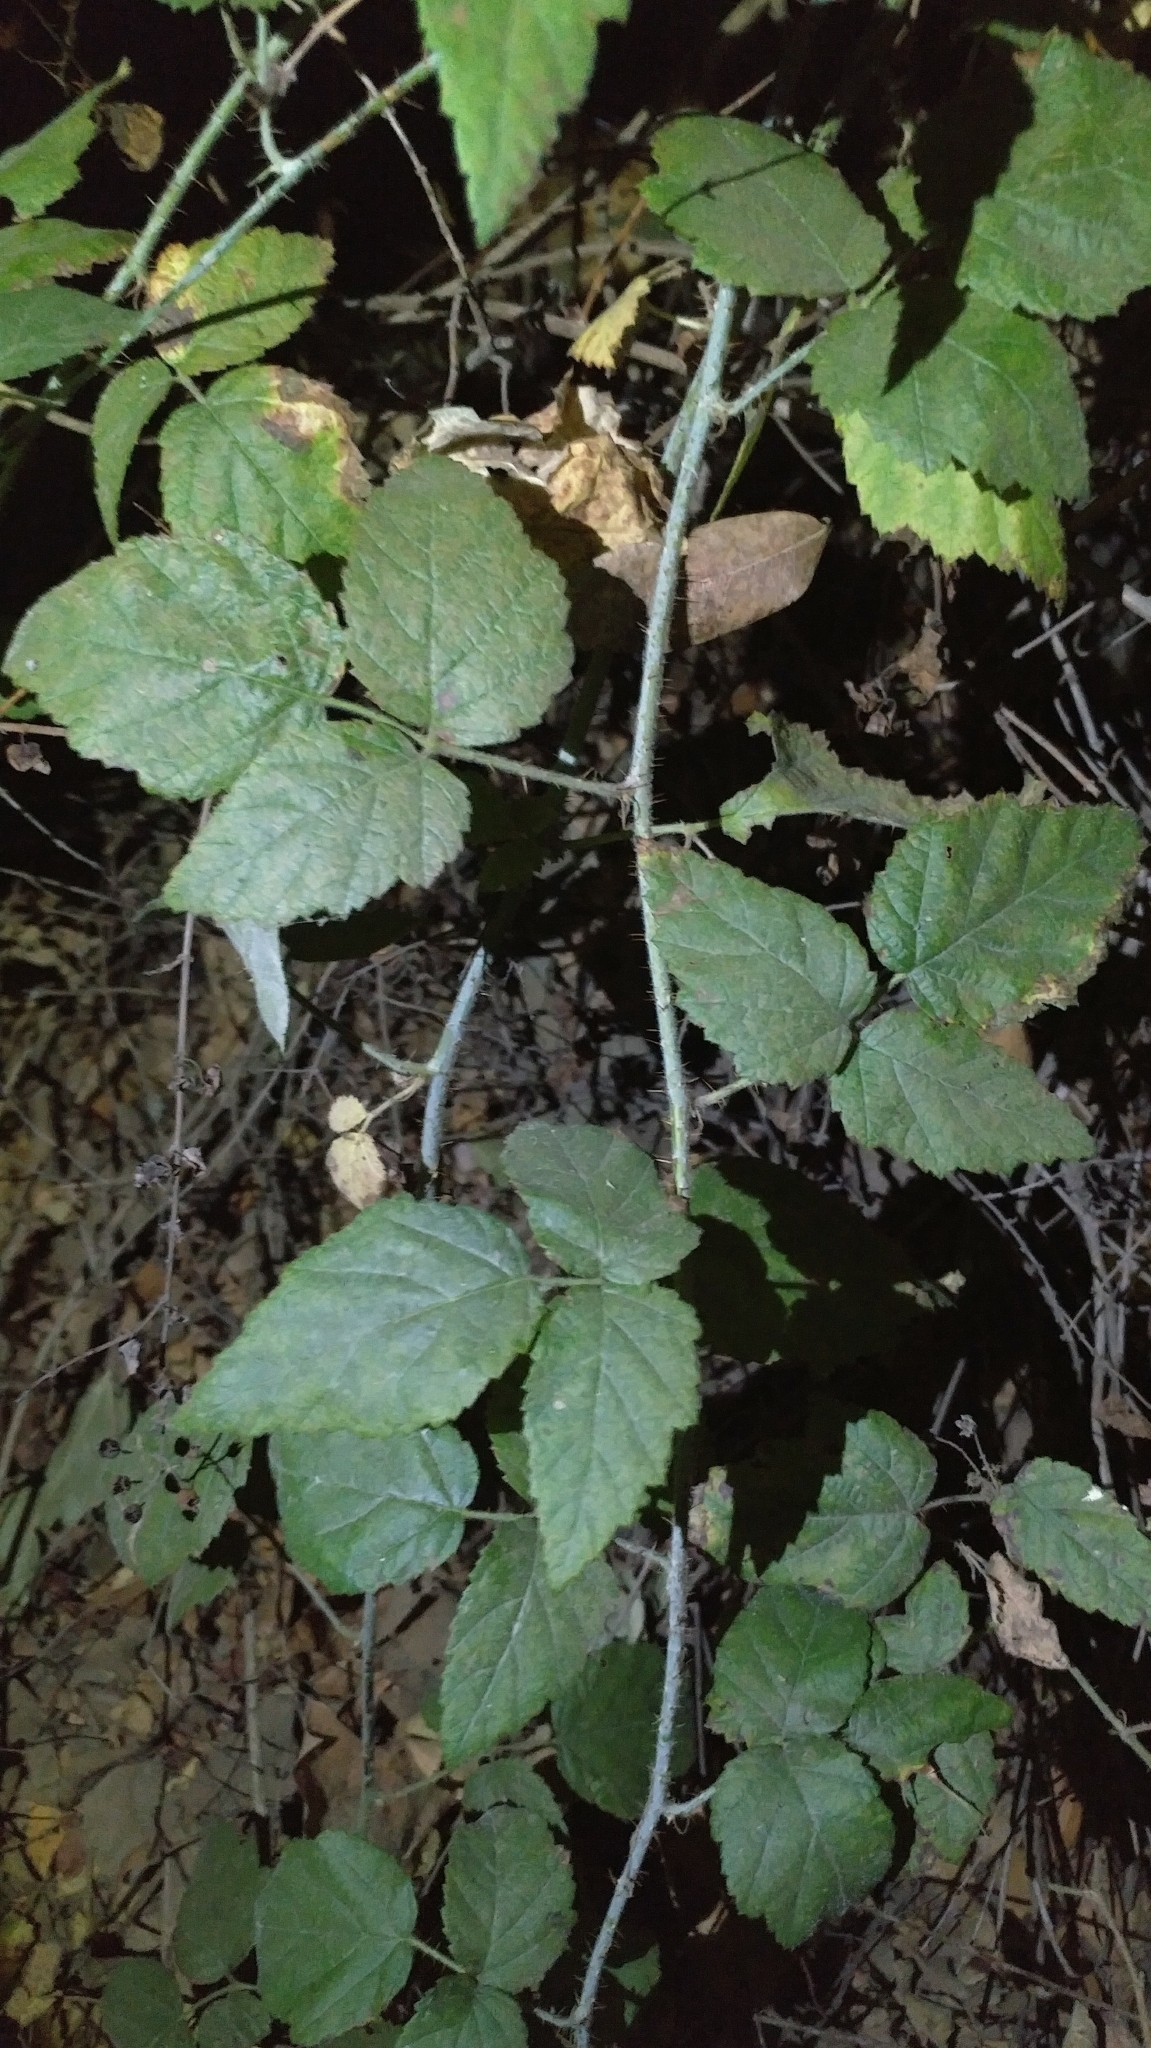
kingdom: Plantae
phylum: Tracheophyta
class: Magnoliopsida
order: Rosales
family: Rosaceae
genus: Rubus
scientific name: Rubus ursinus
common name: Pacific blackberry
